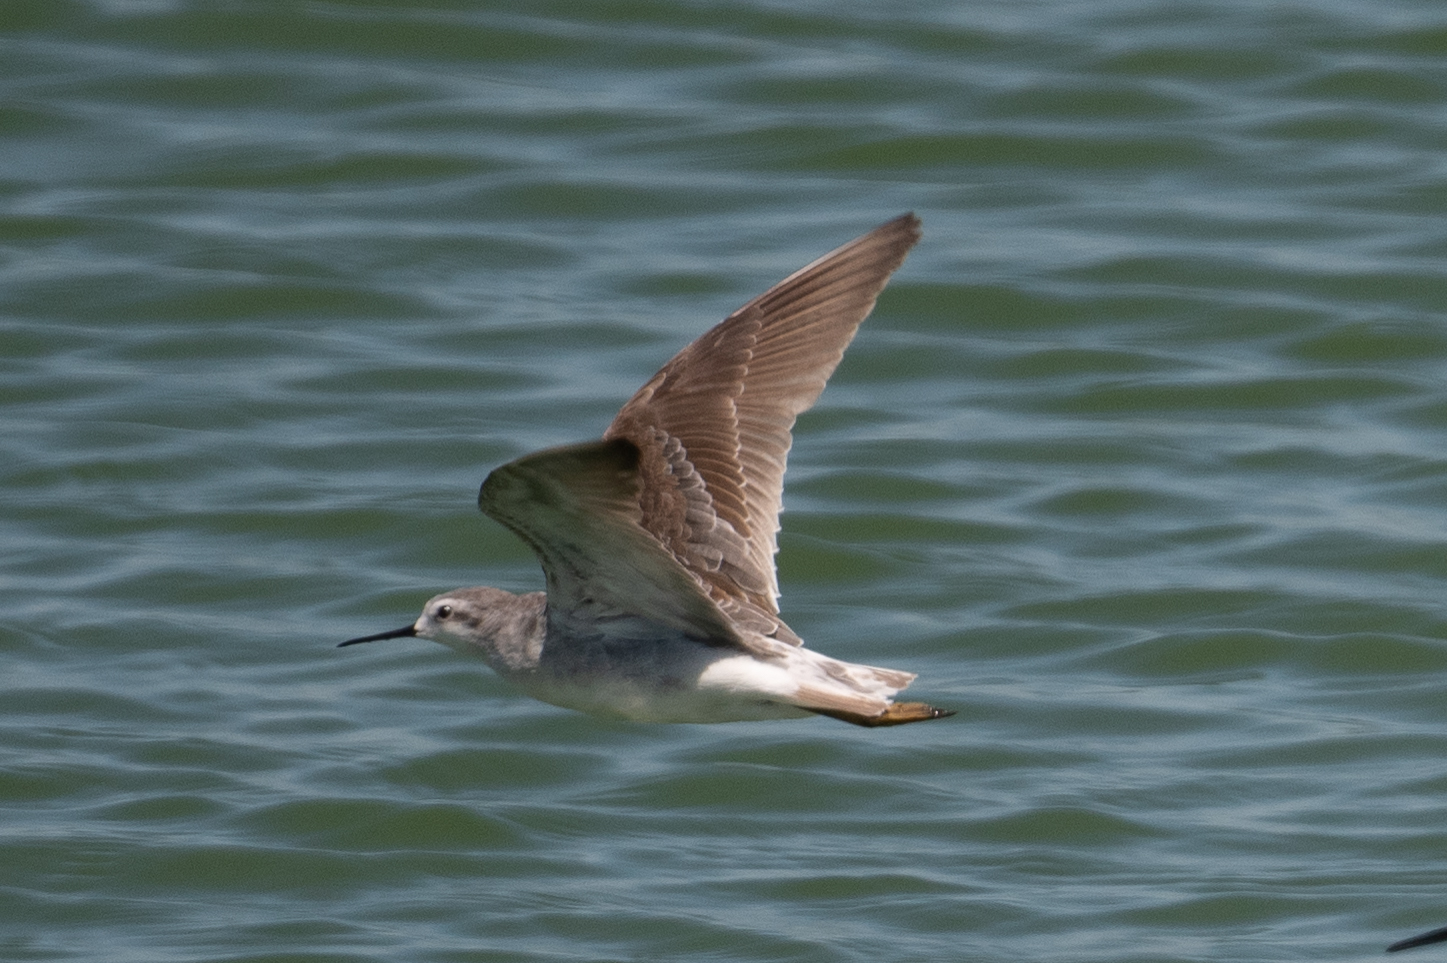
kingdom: Animalia
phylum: Chordata
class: Aves
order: Charadriiformes
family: Scolopacidae
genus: Phalaropus
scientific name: Phalaropus tricolor
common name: Wilson's phalarope
